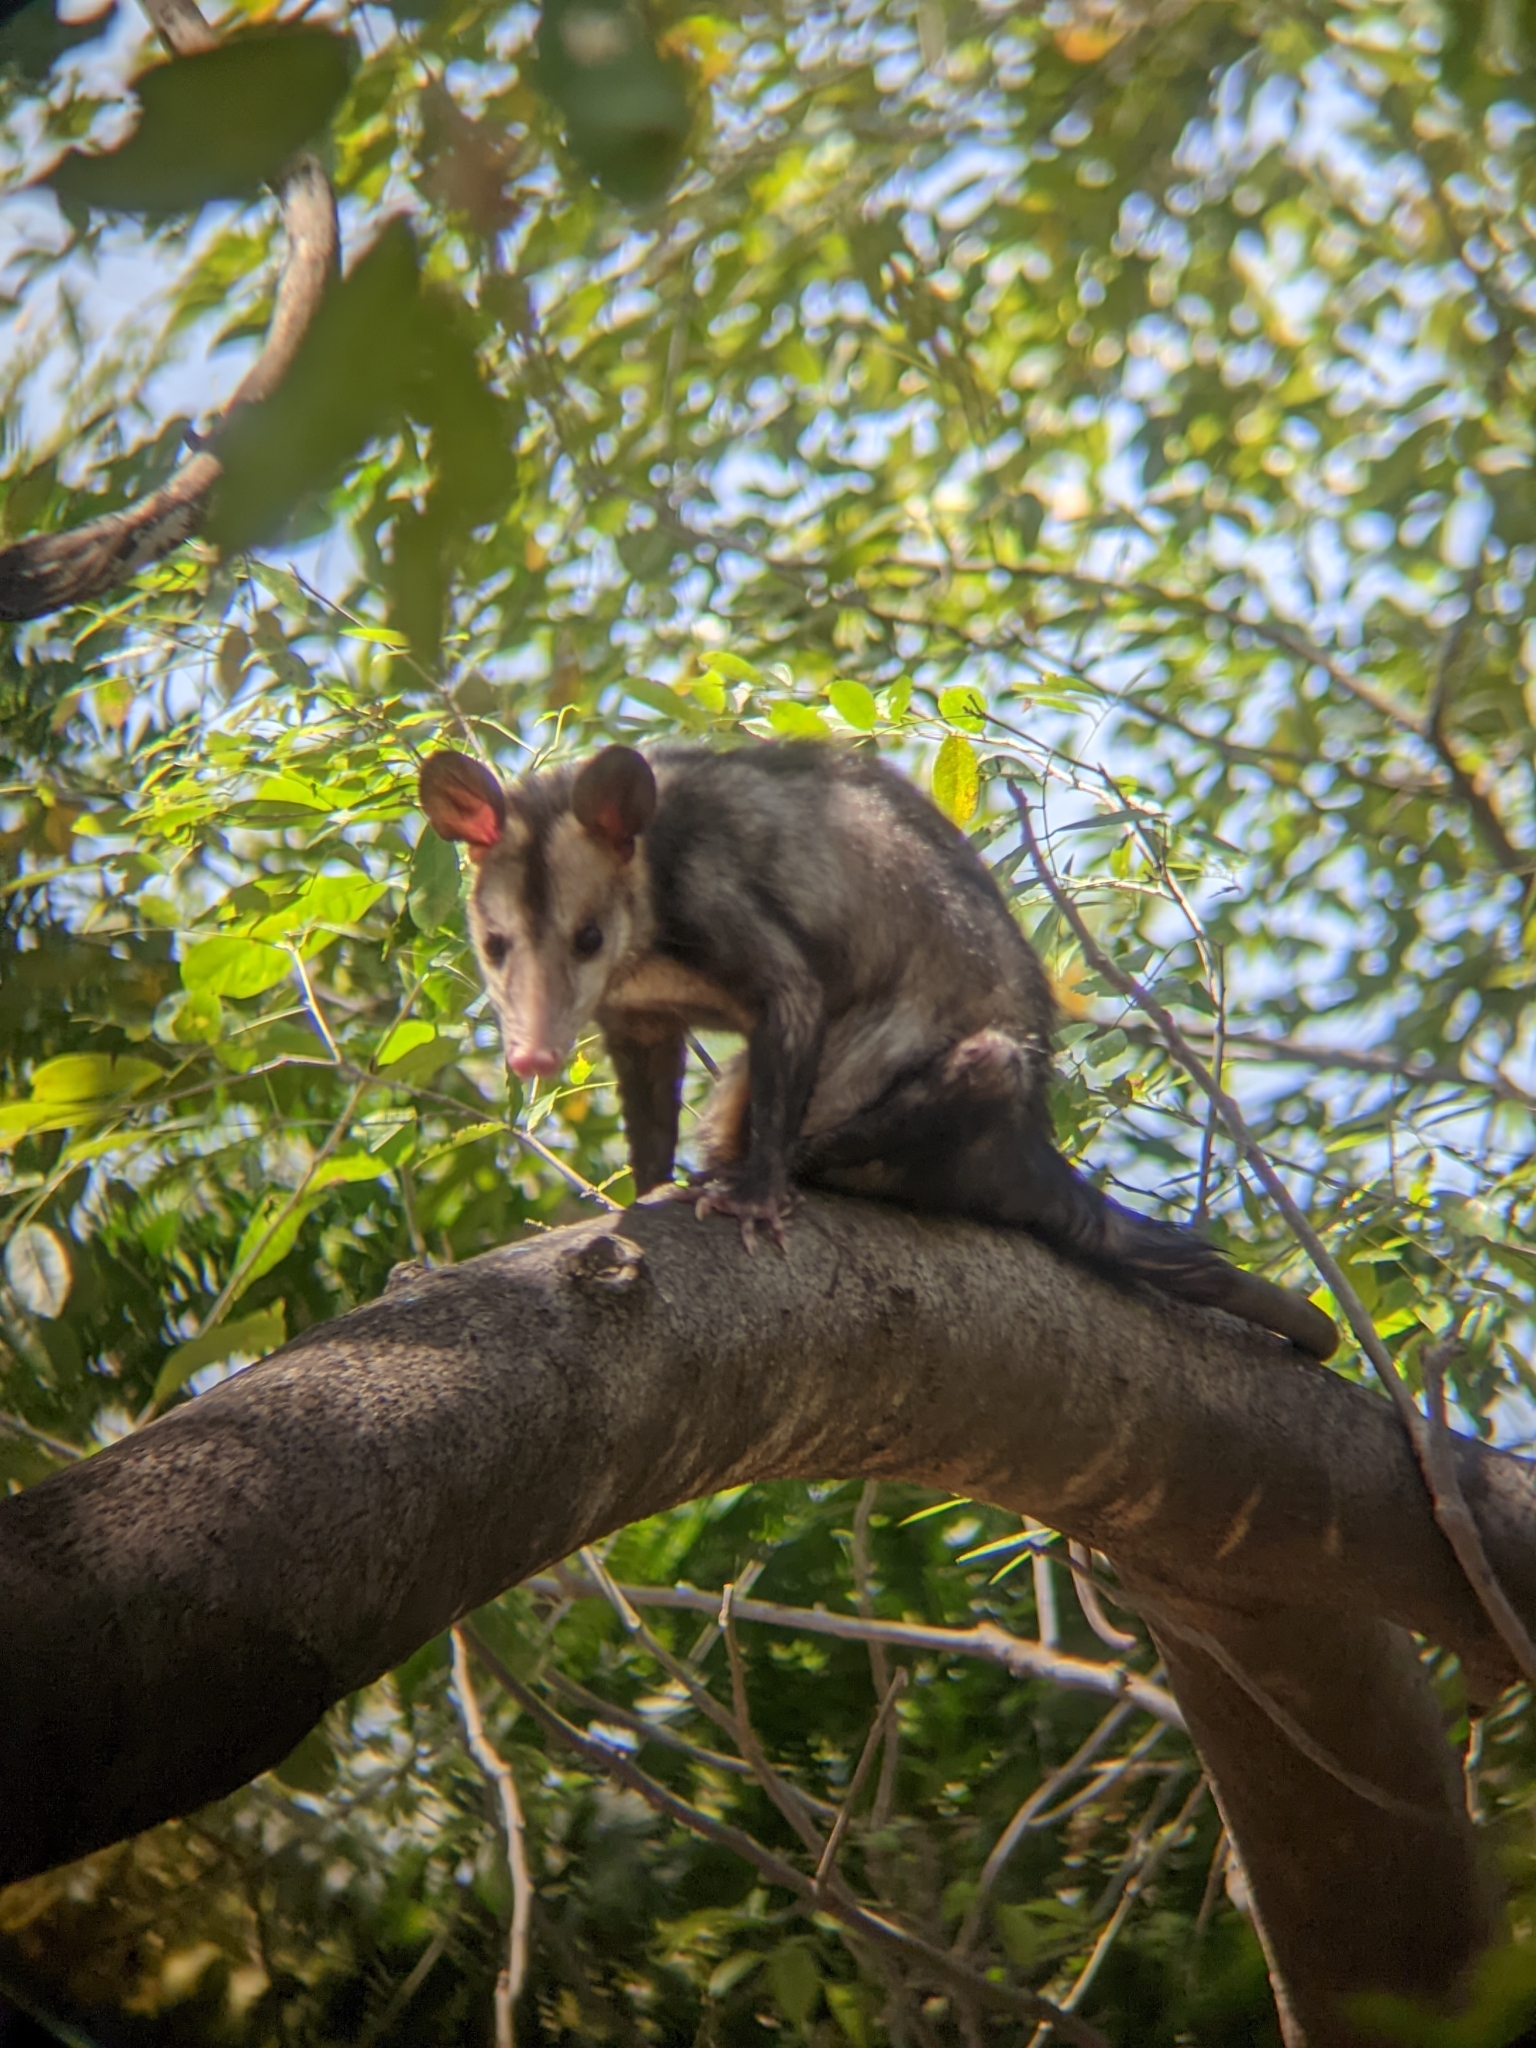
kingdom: Animalia
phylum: Chordata
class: Mammalia
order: Didelphimorphia
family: Didelphidae
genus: Didelphis
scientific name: Didelphis marsupialis
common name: Common opossum
